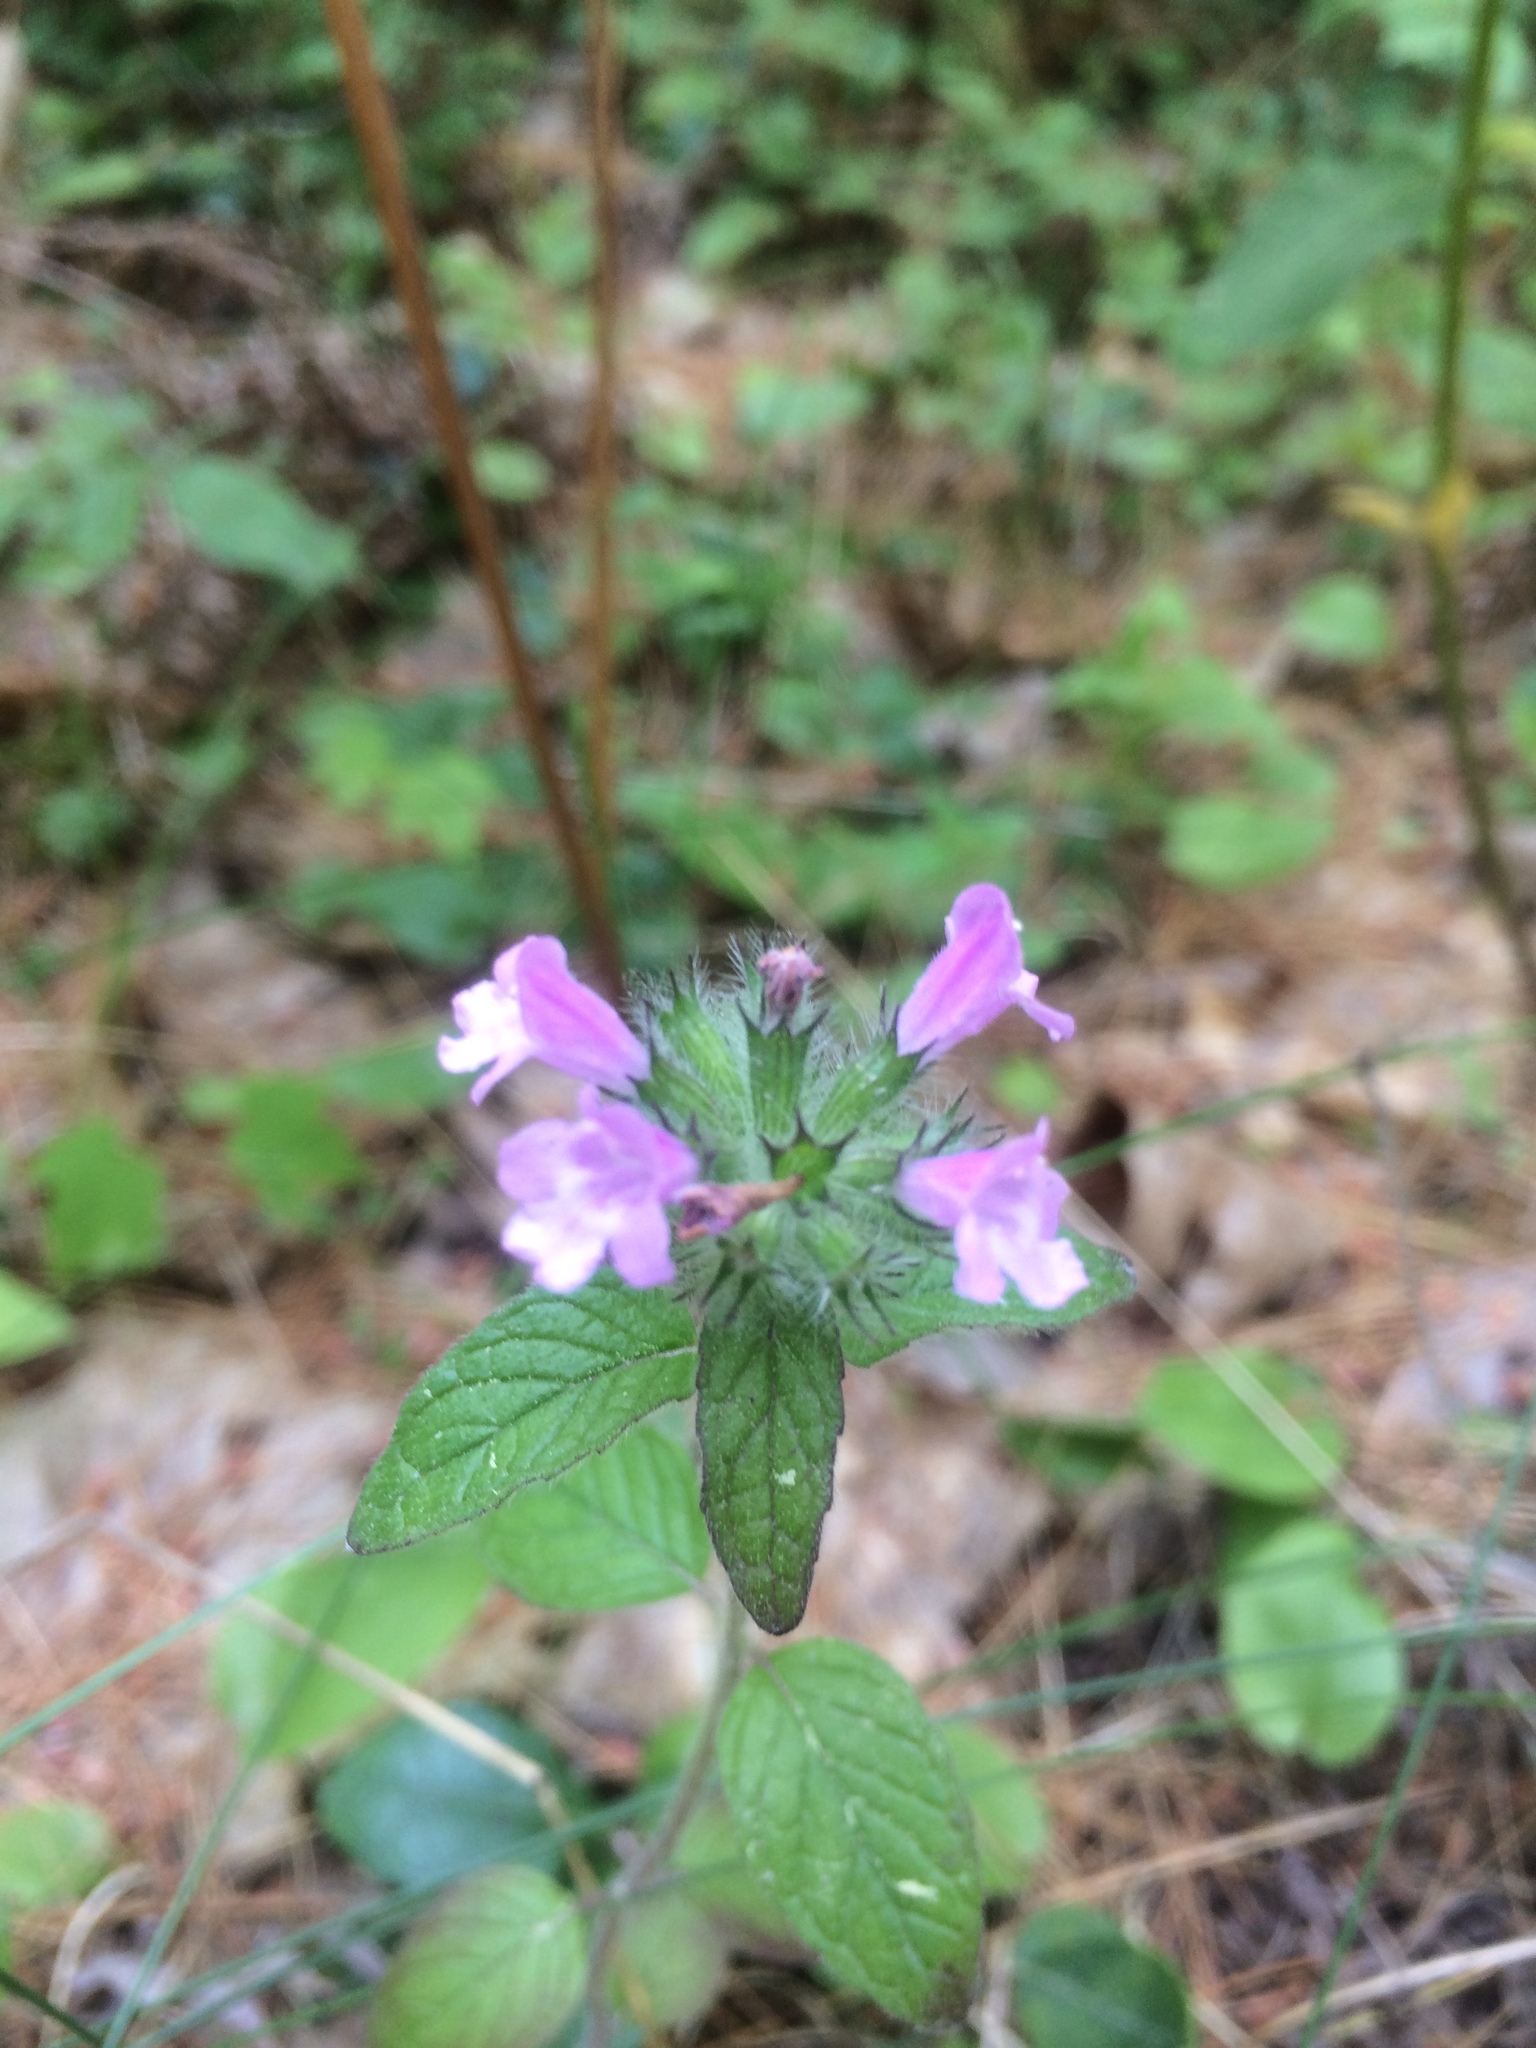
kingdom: Plantae
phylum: Tracheophyta
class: Magnoliopsida
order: Lamiales
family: Lamiaceae
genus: Clinopodium
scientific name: Clinopodium vulgare
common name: Wild basil
